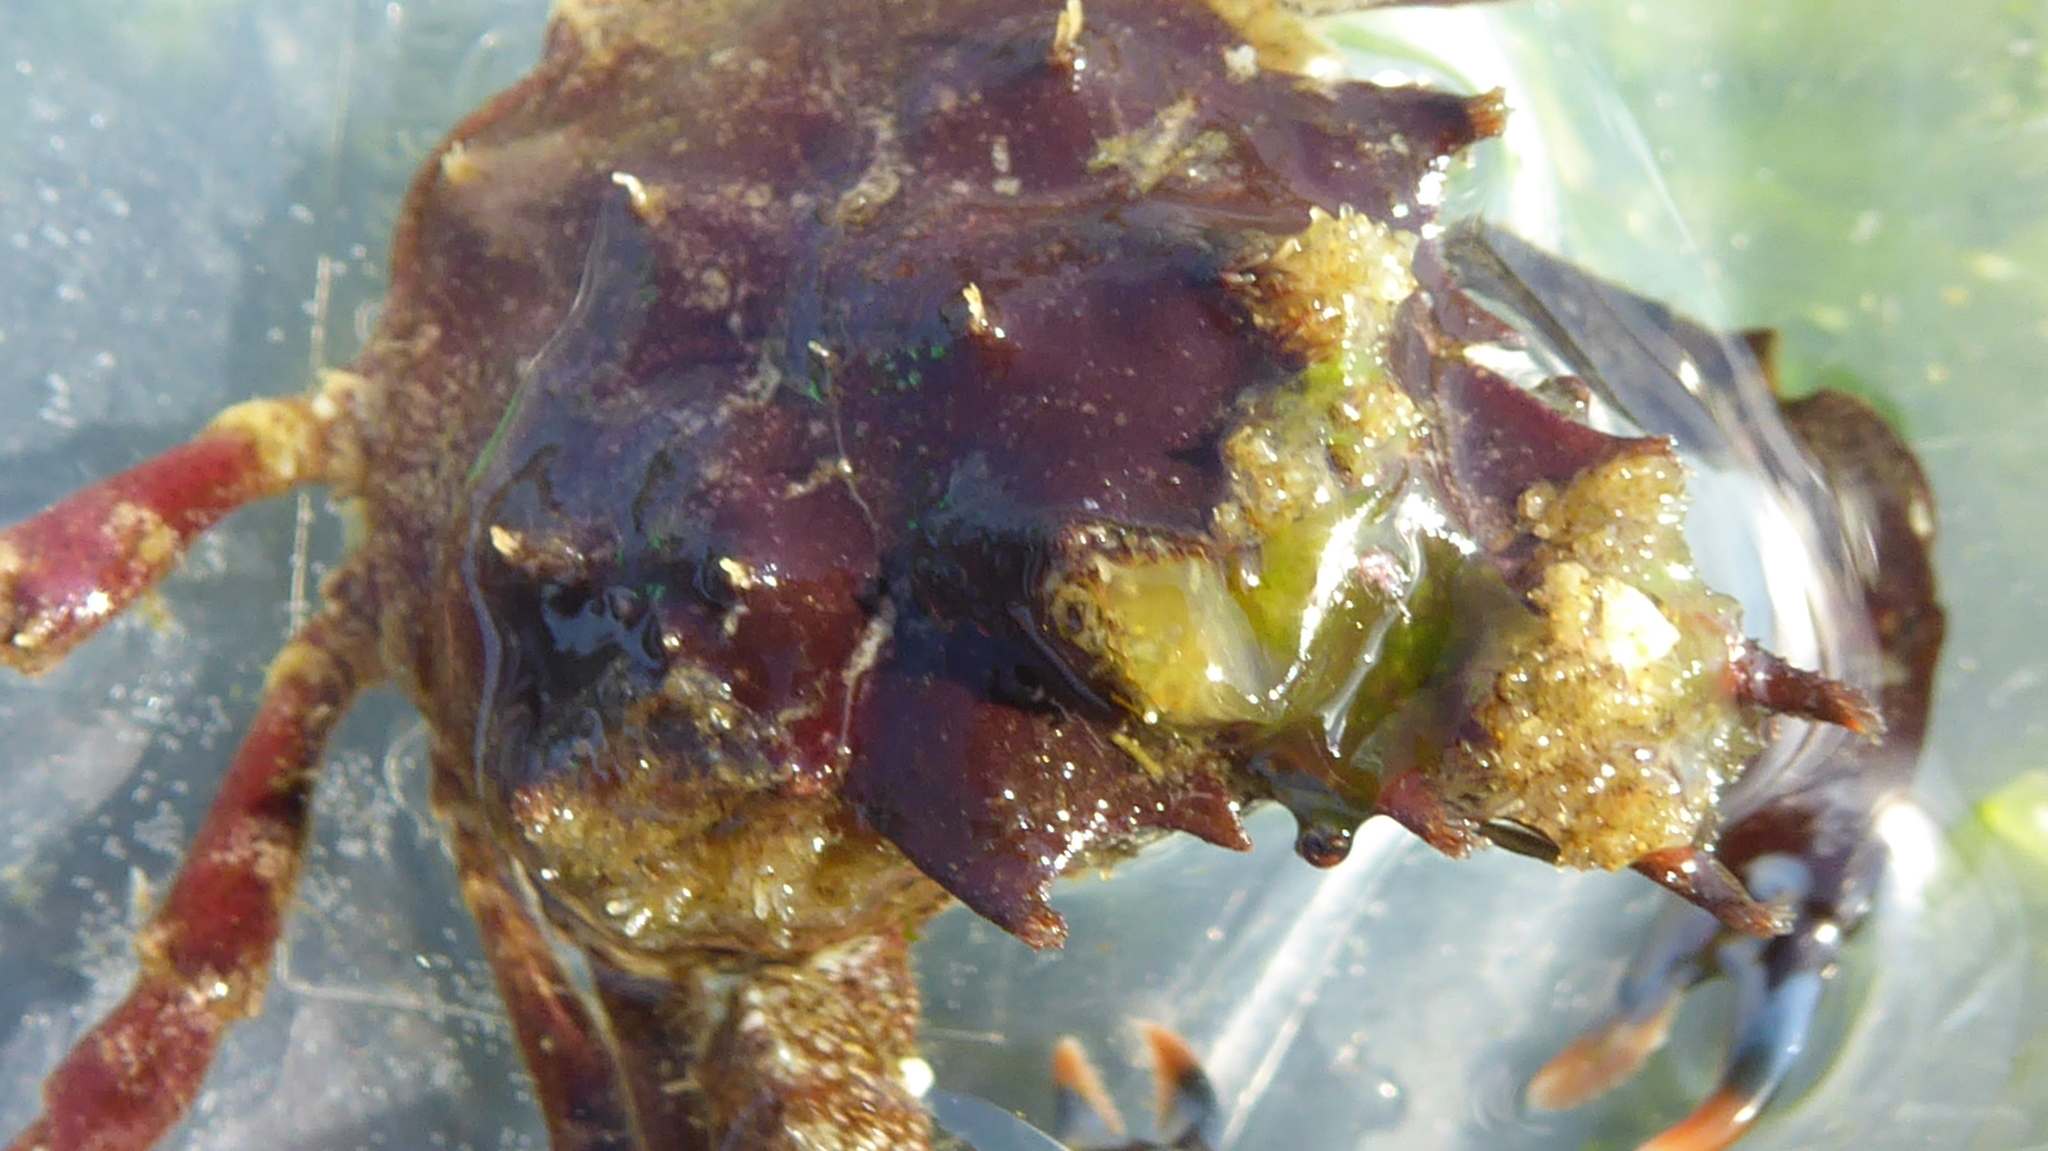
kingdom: Animalia
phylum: Arthropoda
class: Malacostraca
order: Decapoda
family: Epialtidae
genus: Pugettia
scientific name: Pugettia gracilis
